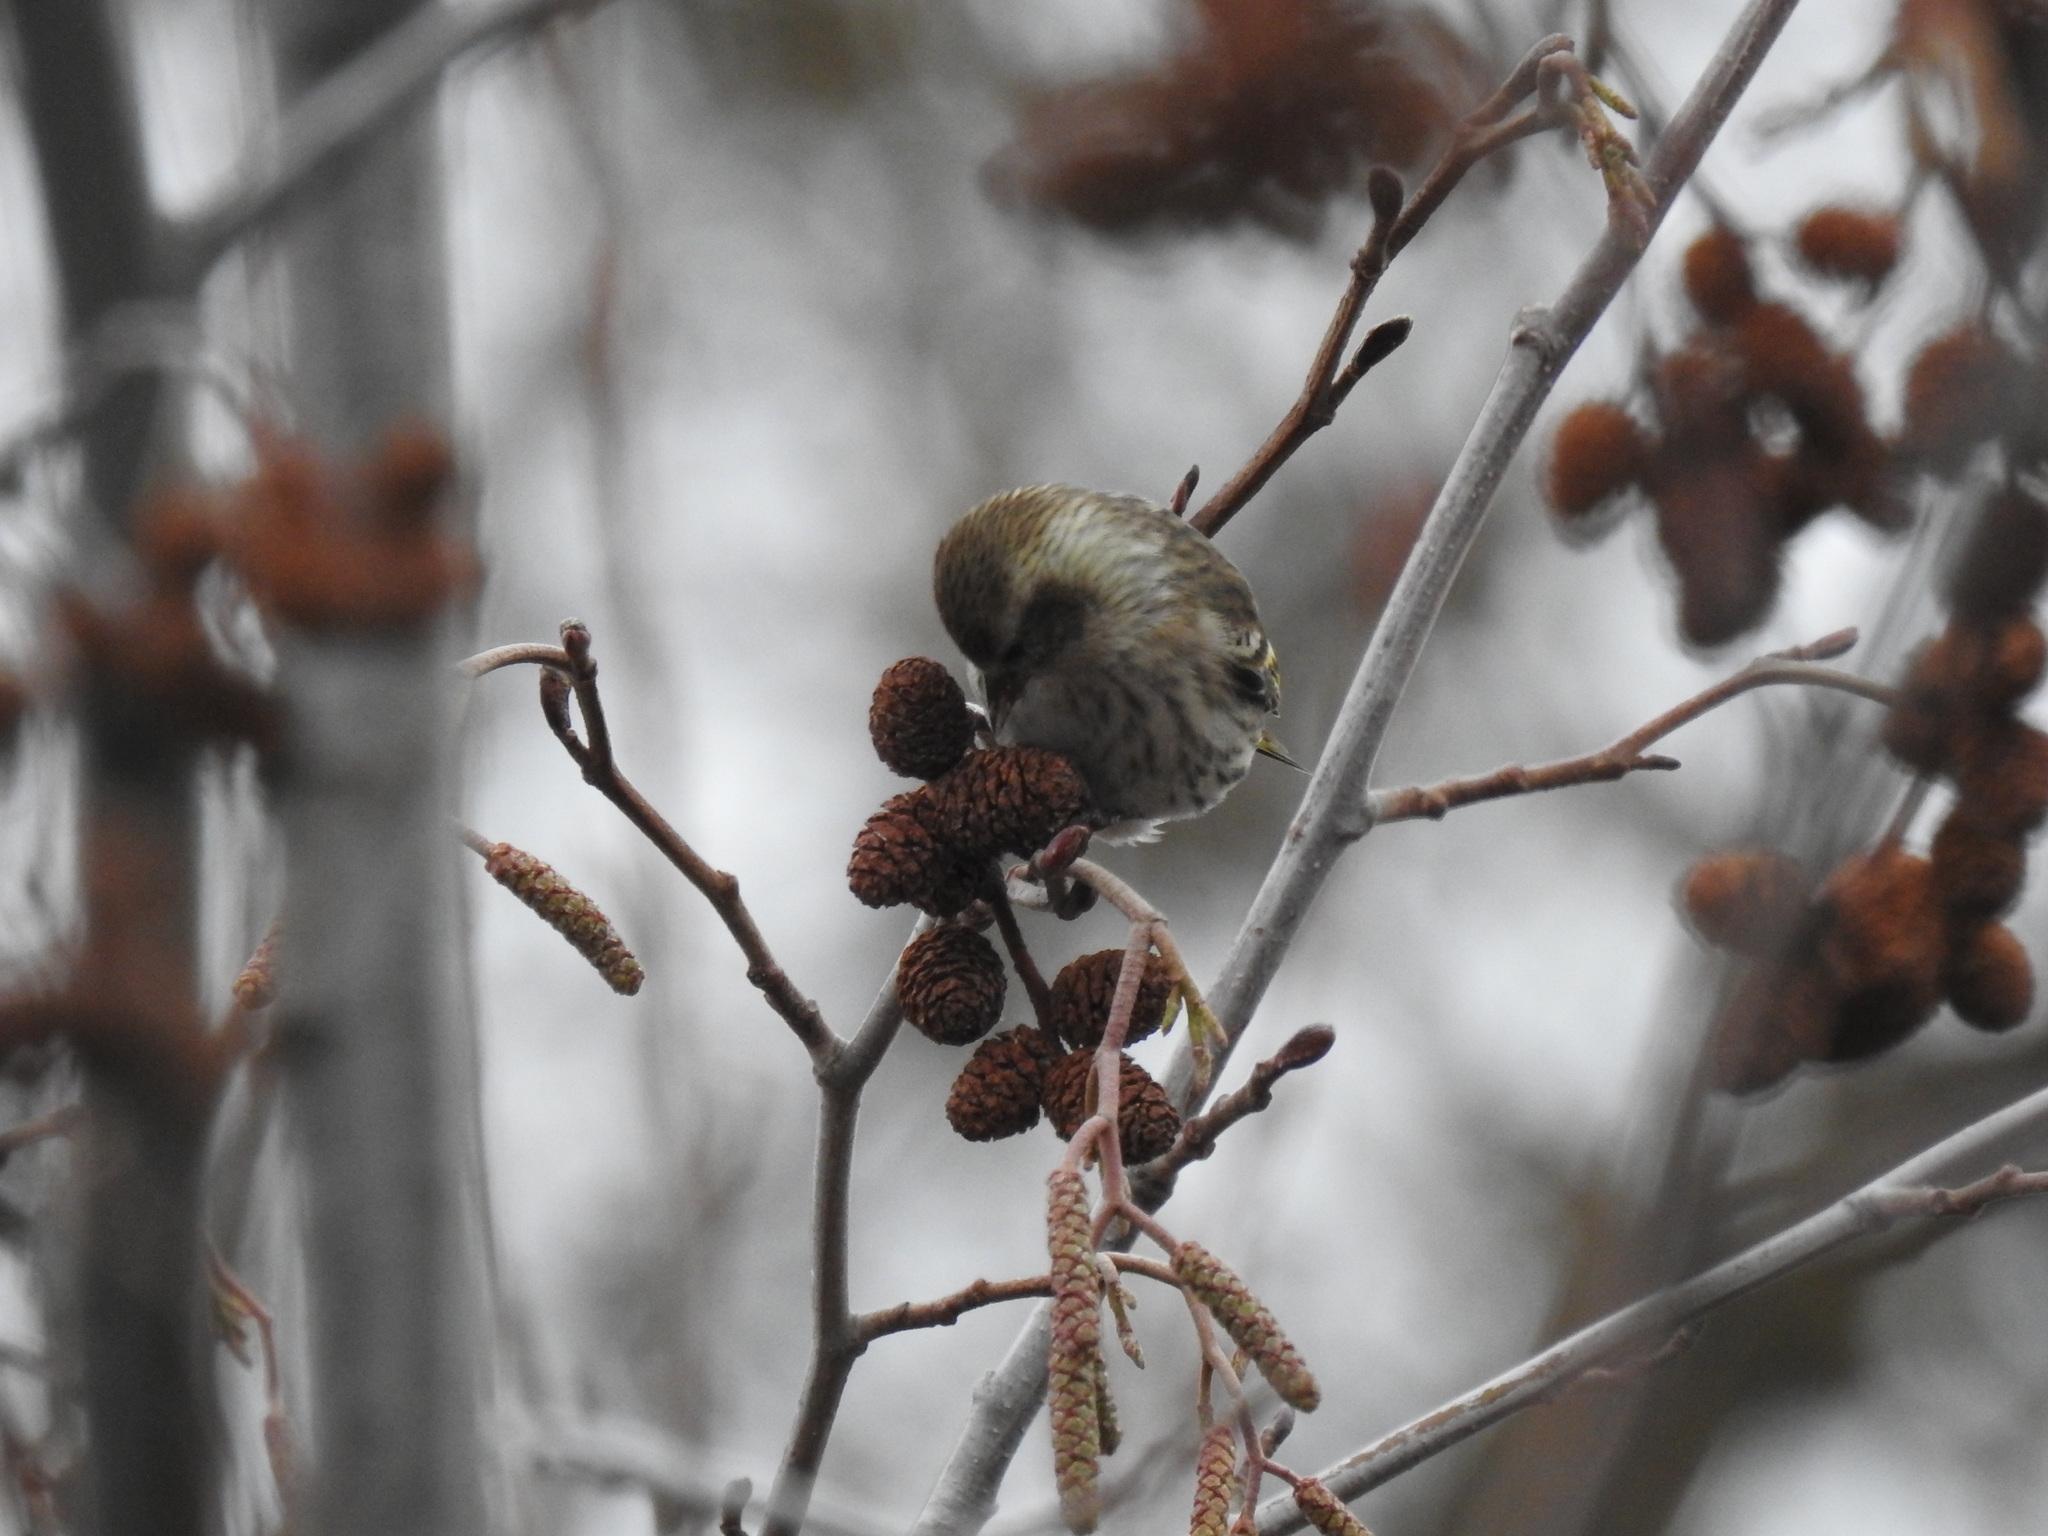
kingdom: Animalia
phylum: Chordata
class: Aves
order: Passeriformes
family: Fringillidae
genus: Spinus
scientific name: Spinus pinus
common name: Pine siskin
